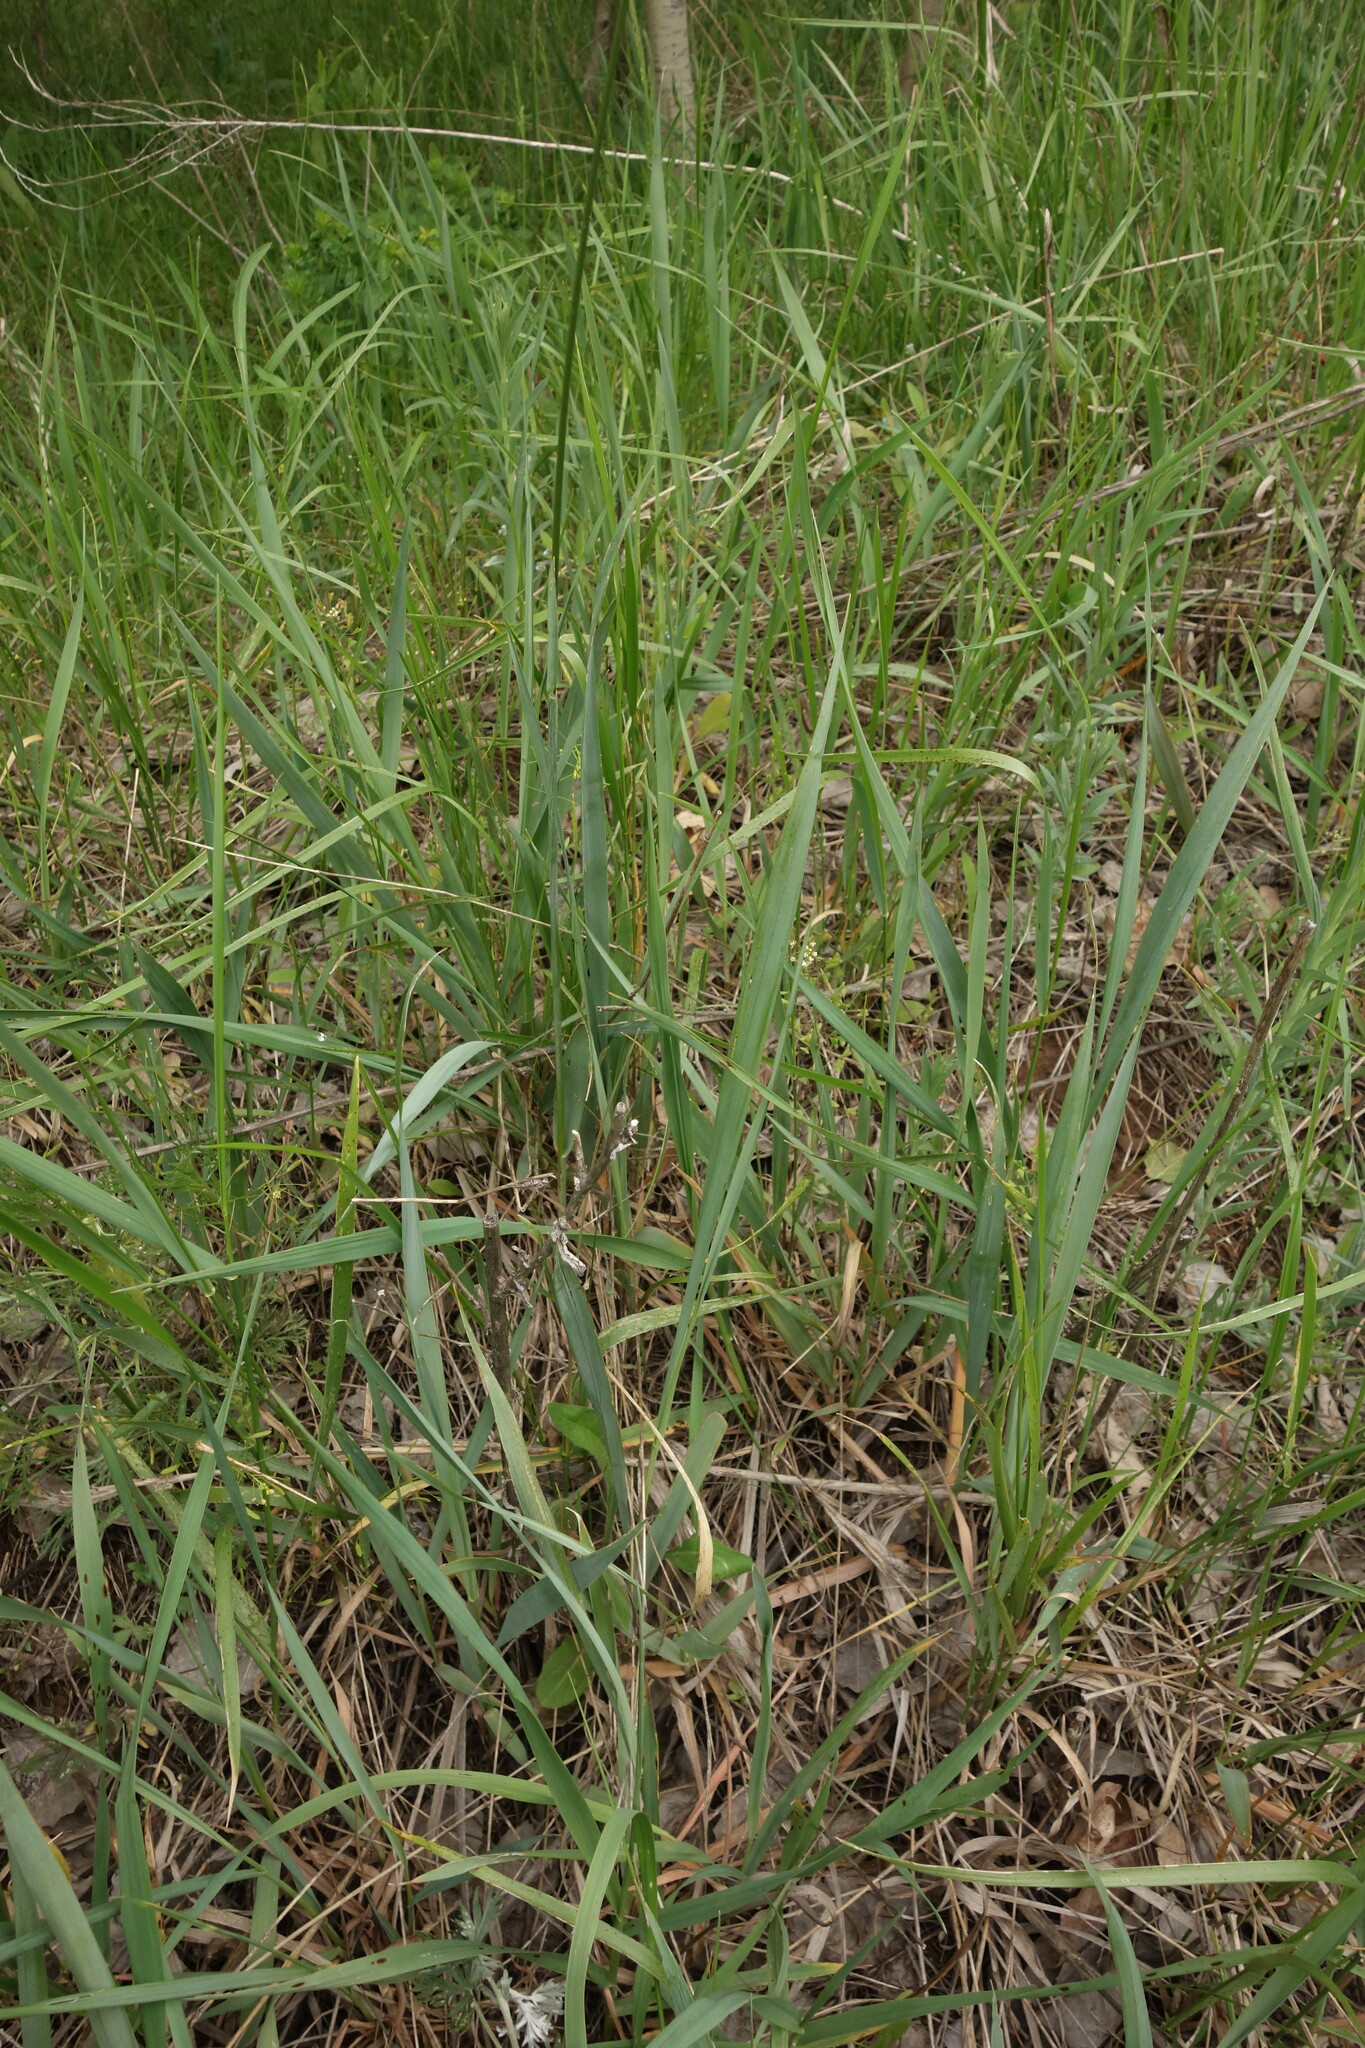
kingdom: Plantae
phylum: Tracheophyta
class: Liliopsida
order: Poales
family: Poaceae
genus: Anthoxanthum
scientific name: Anthoxanthum repens
